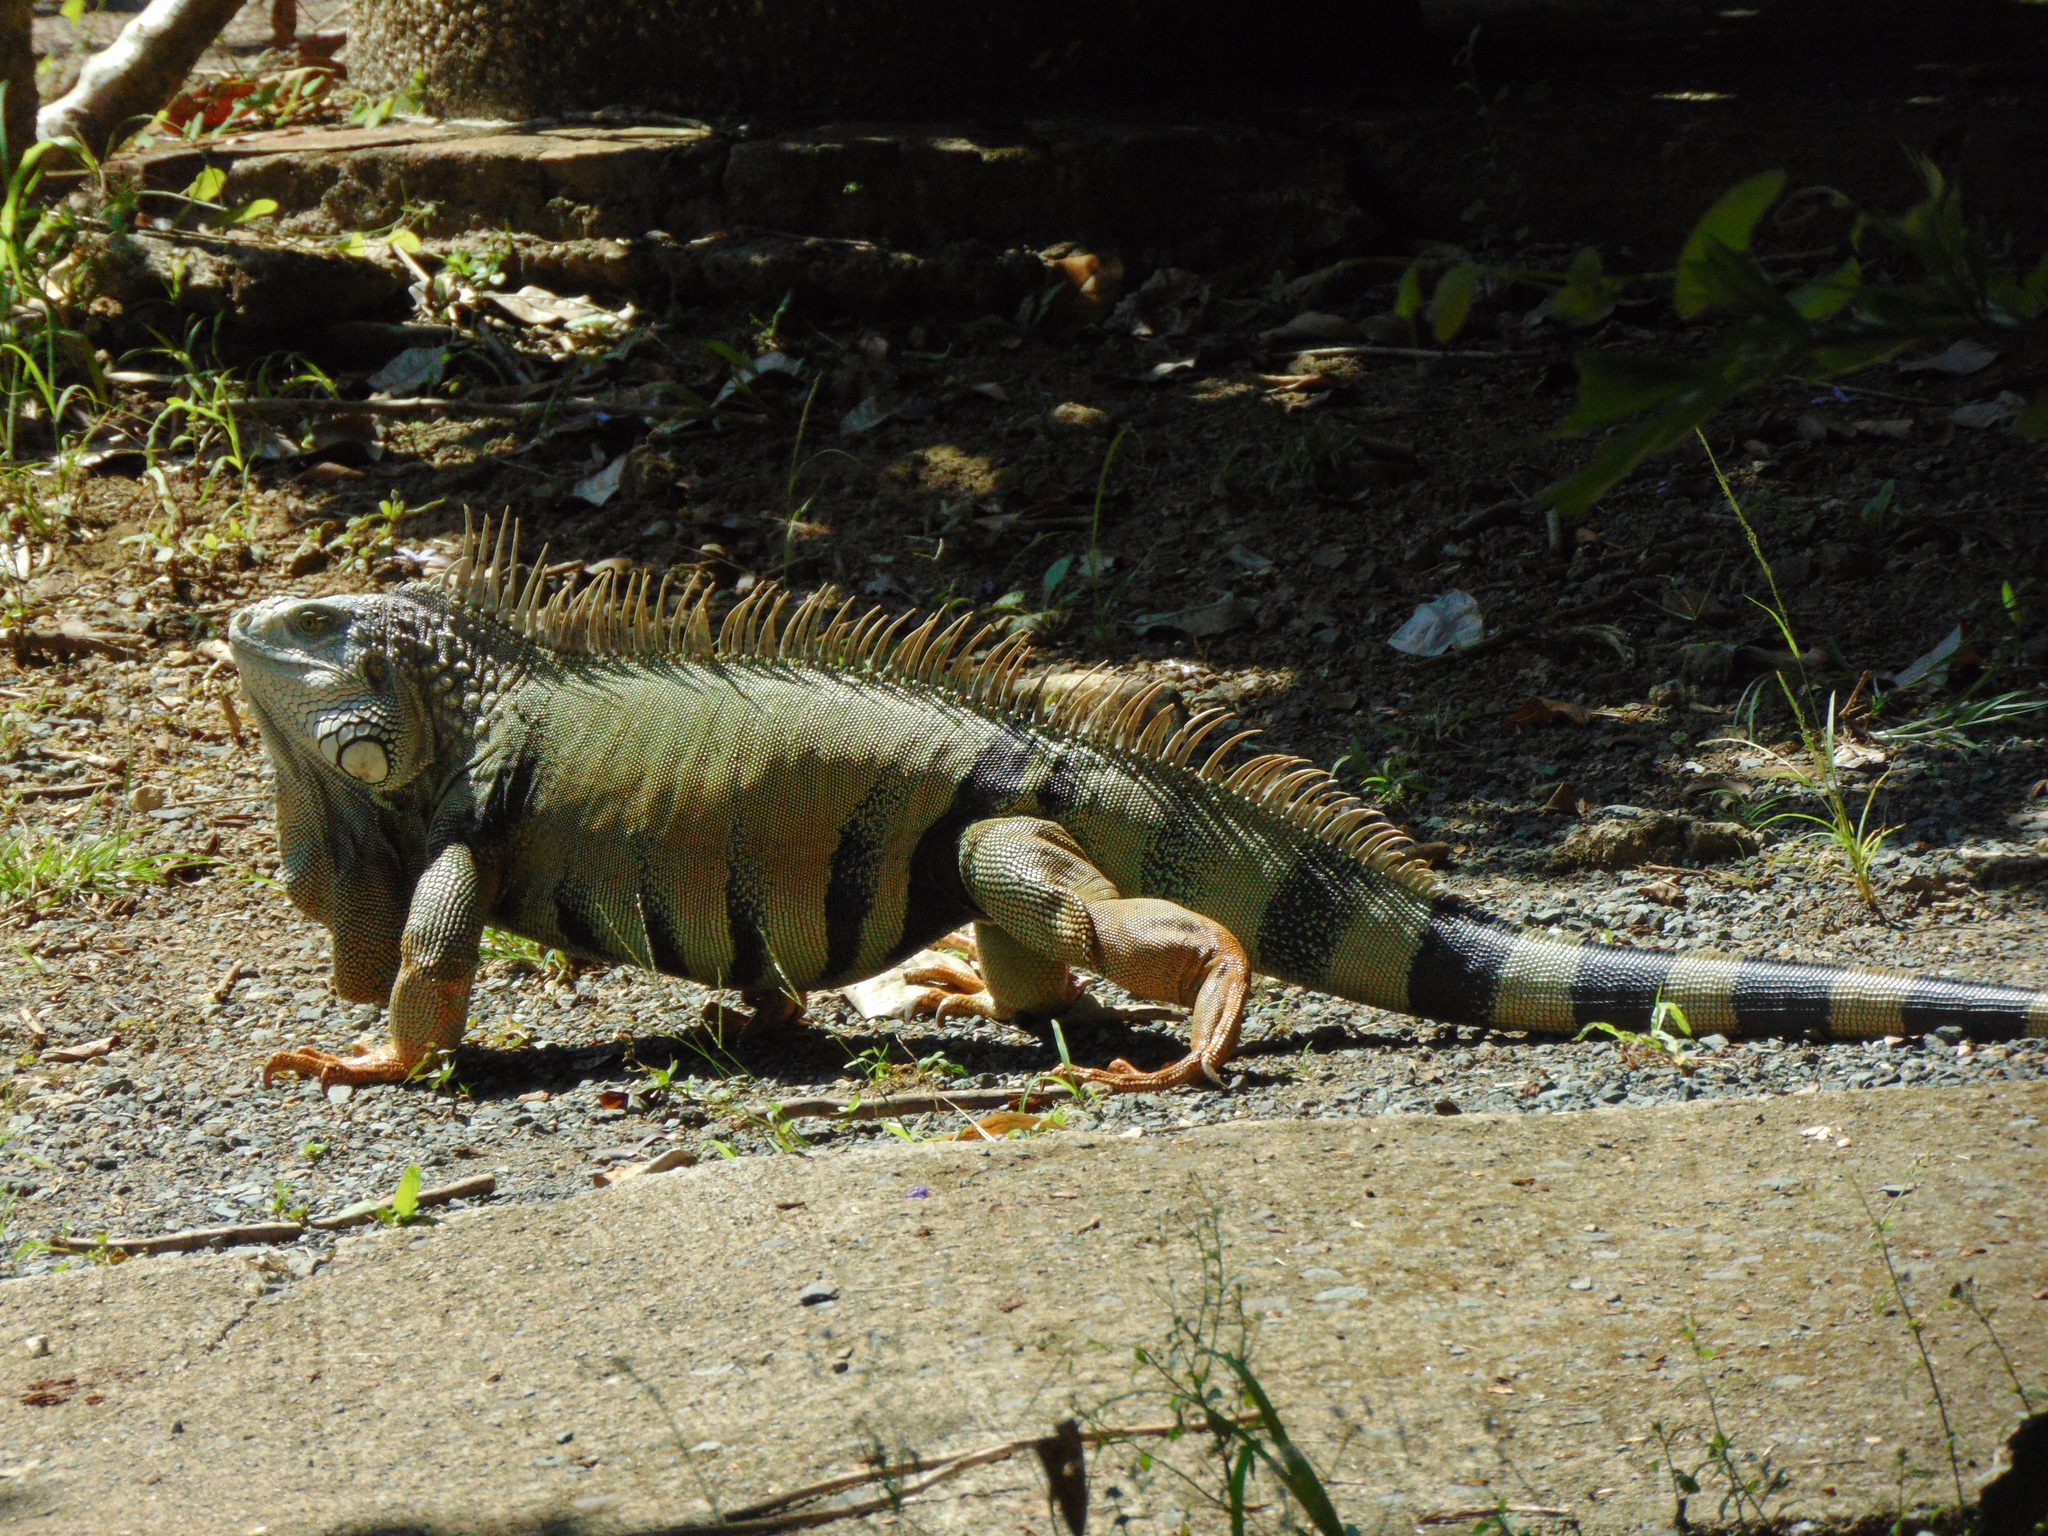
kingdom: Animalia
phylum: Chordata
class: Squamata
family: Iguanidae
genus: Iguana
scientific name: Iguana iguana
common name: Green iguana
